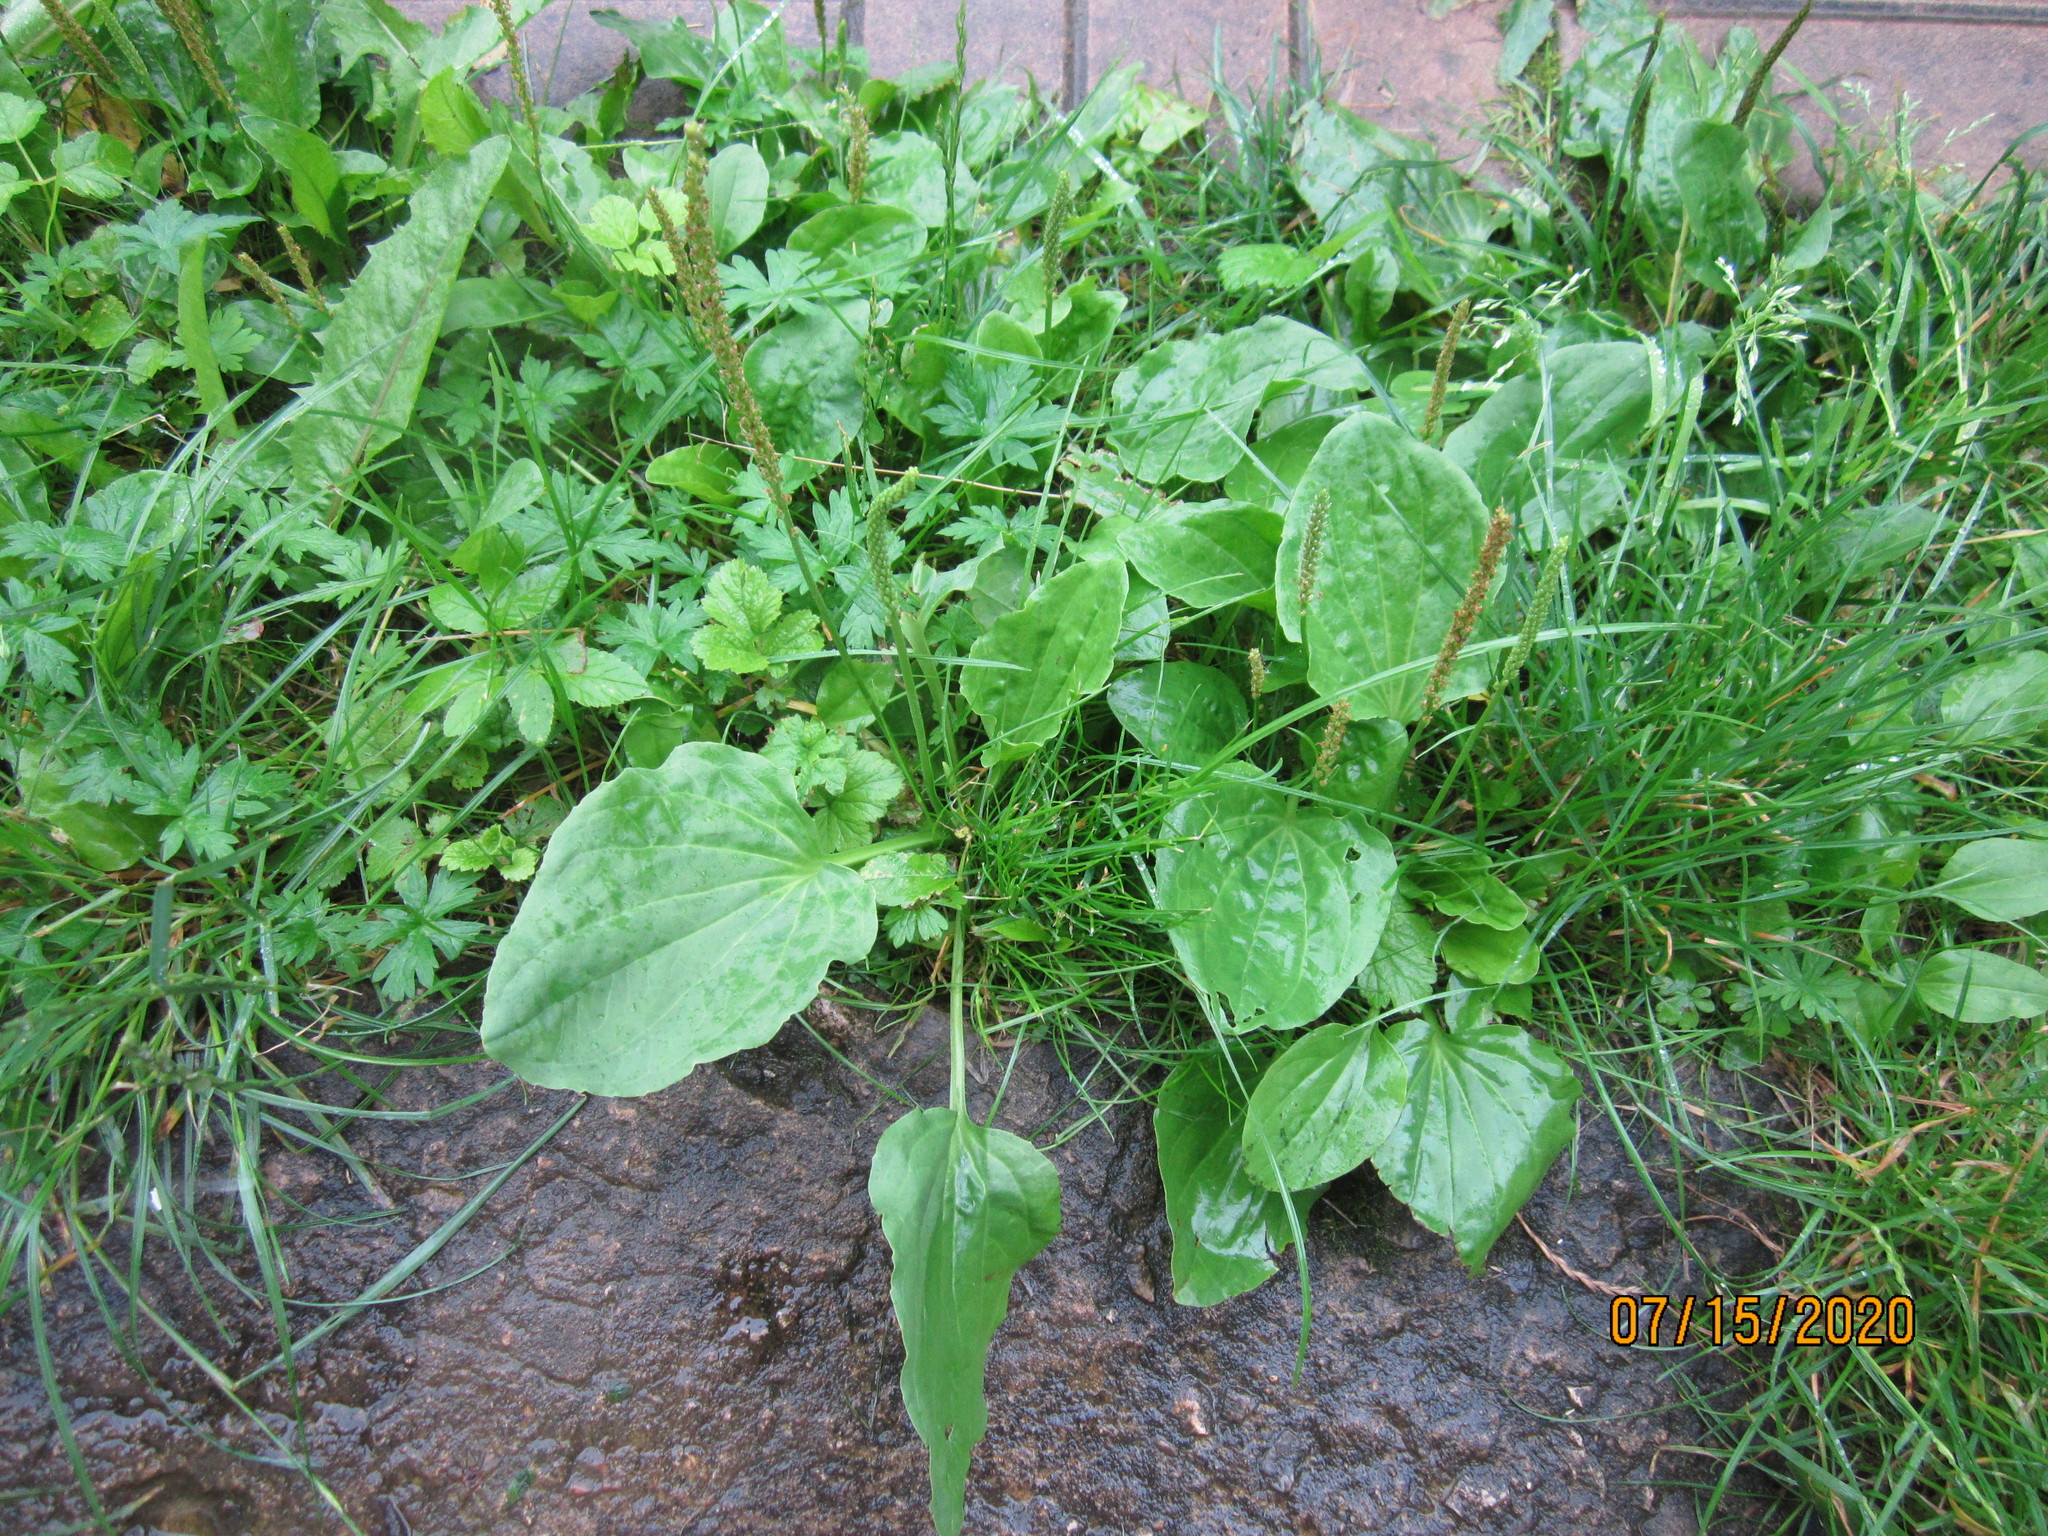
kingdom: Plantae
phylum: Tracheophyta
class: Magnoliopsida
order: Lamiales
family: Plantaginaceae
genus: Plantago
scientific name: Plantago major
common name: Common plantain
